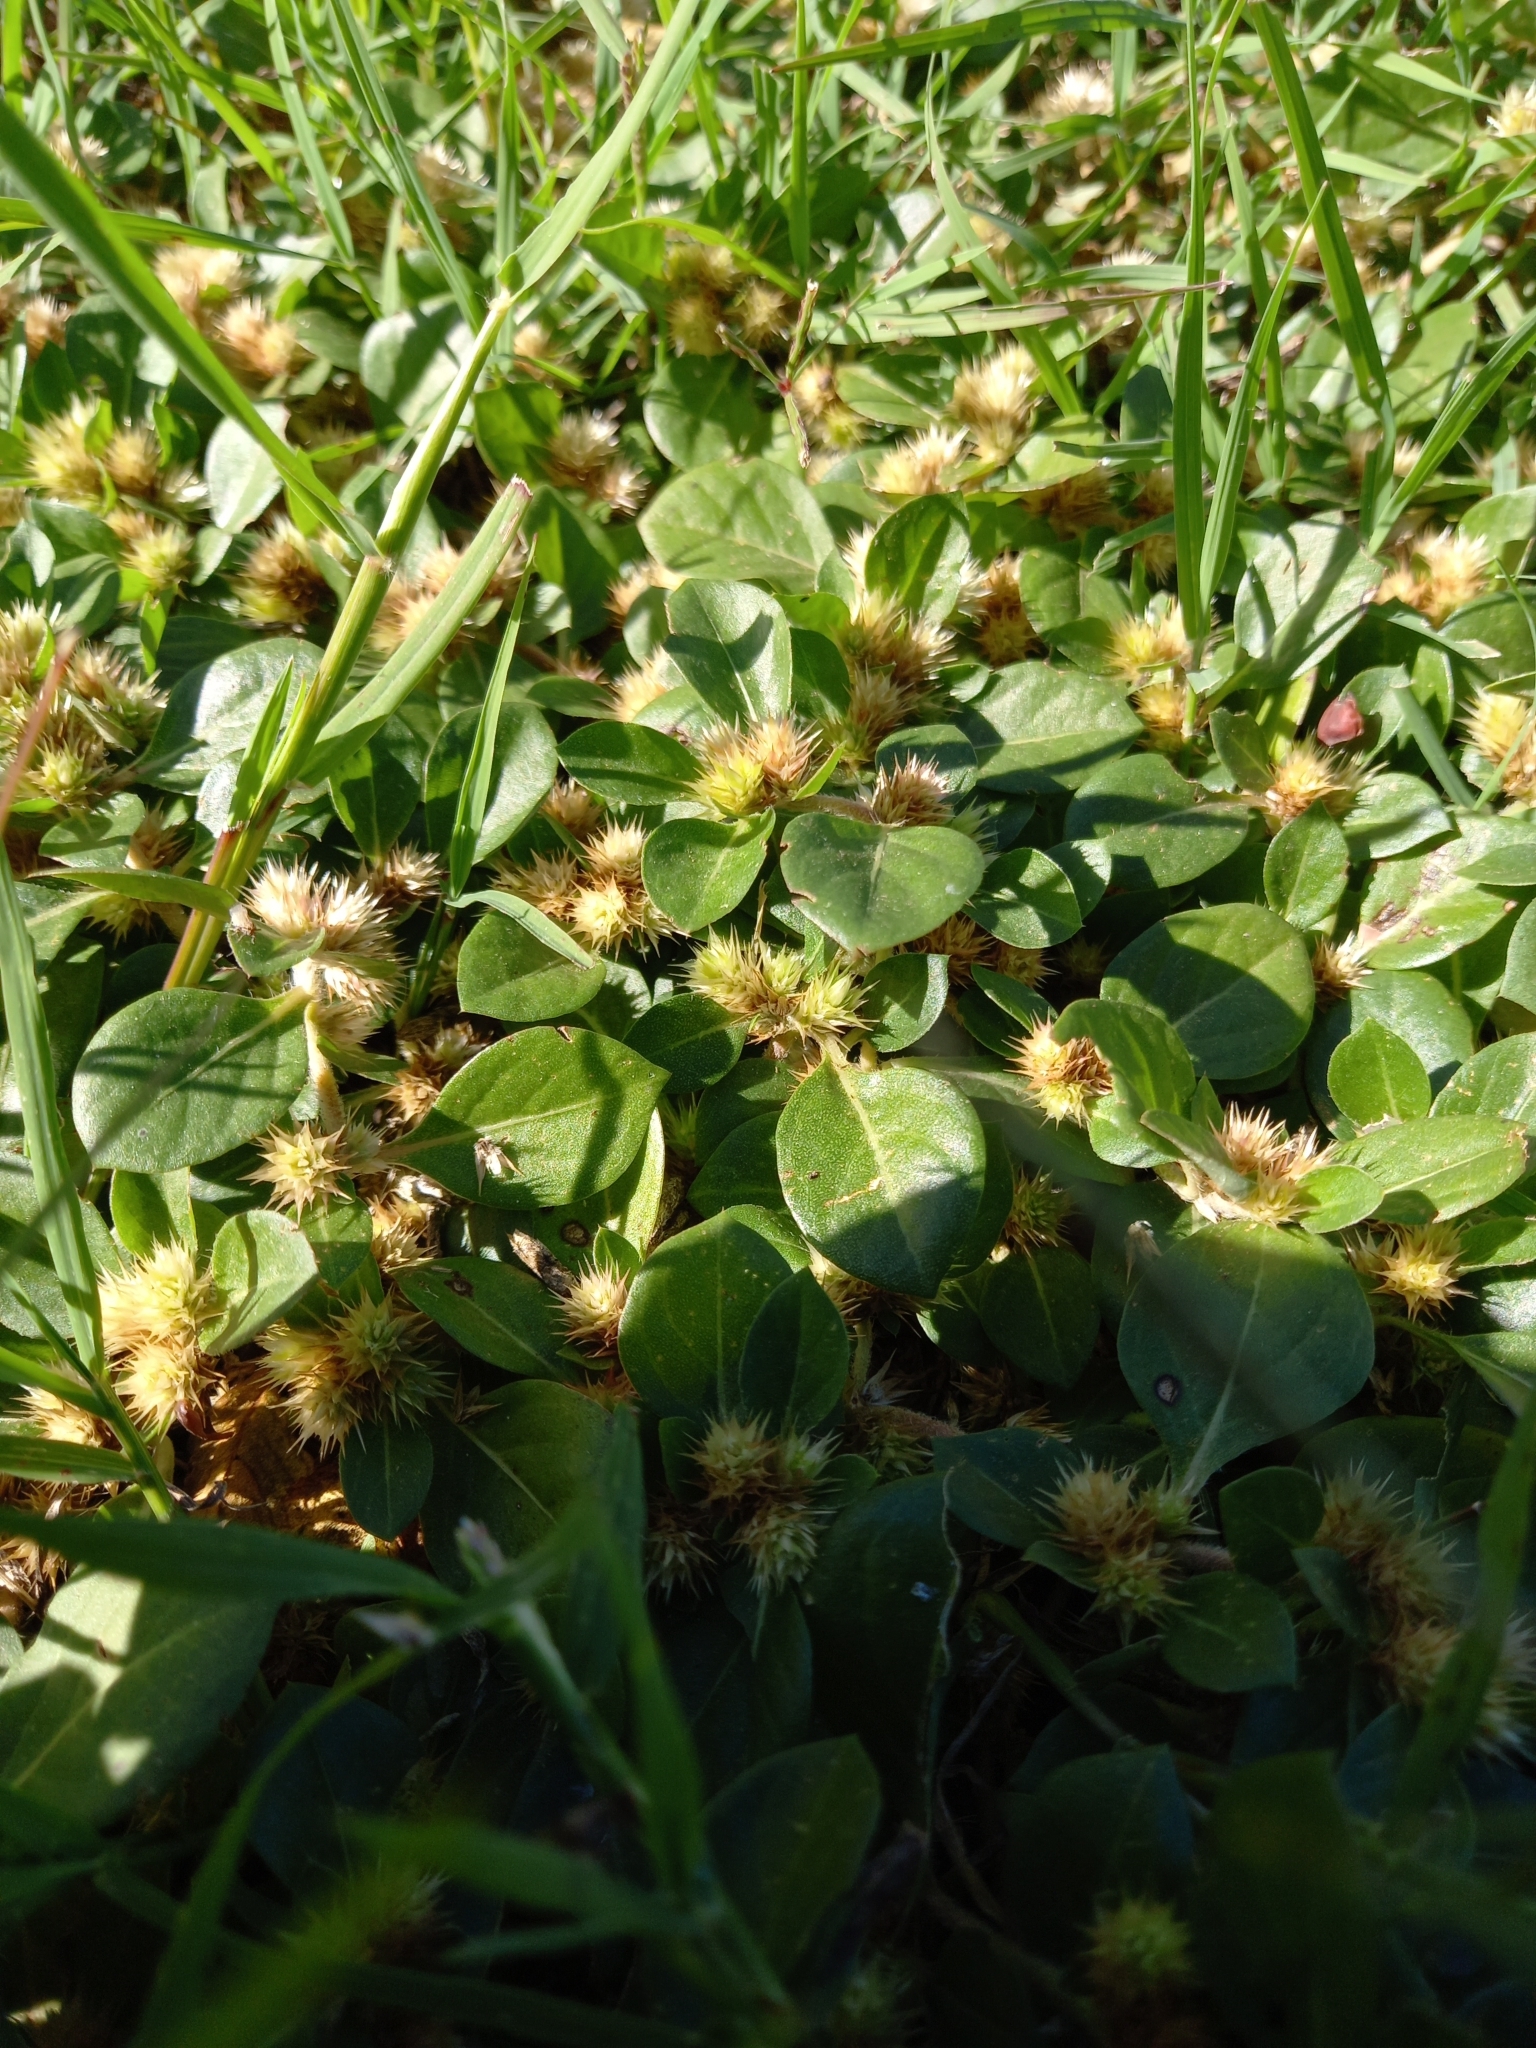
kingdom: Plantae
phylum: Tracheophyta
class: Magnoliopsida
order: Caryophyllales
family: Amaranthaceae
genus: Alternanthera
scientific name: Alternanthera pungens
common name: Khakiweed
